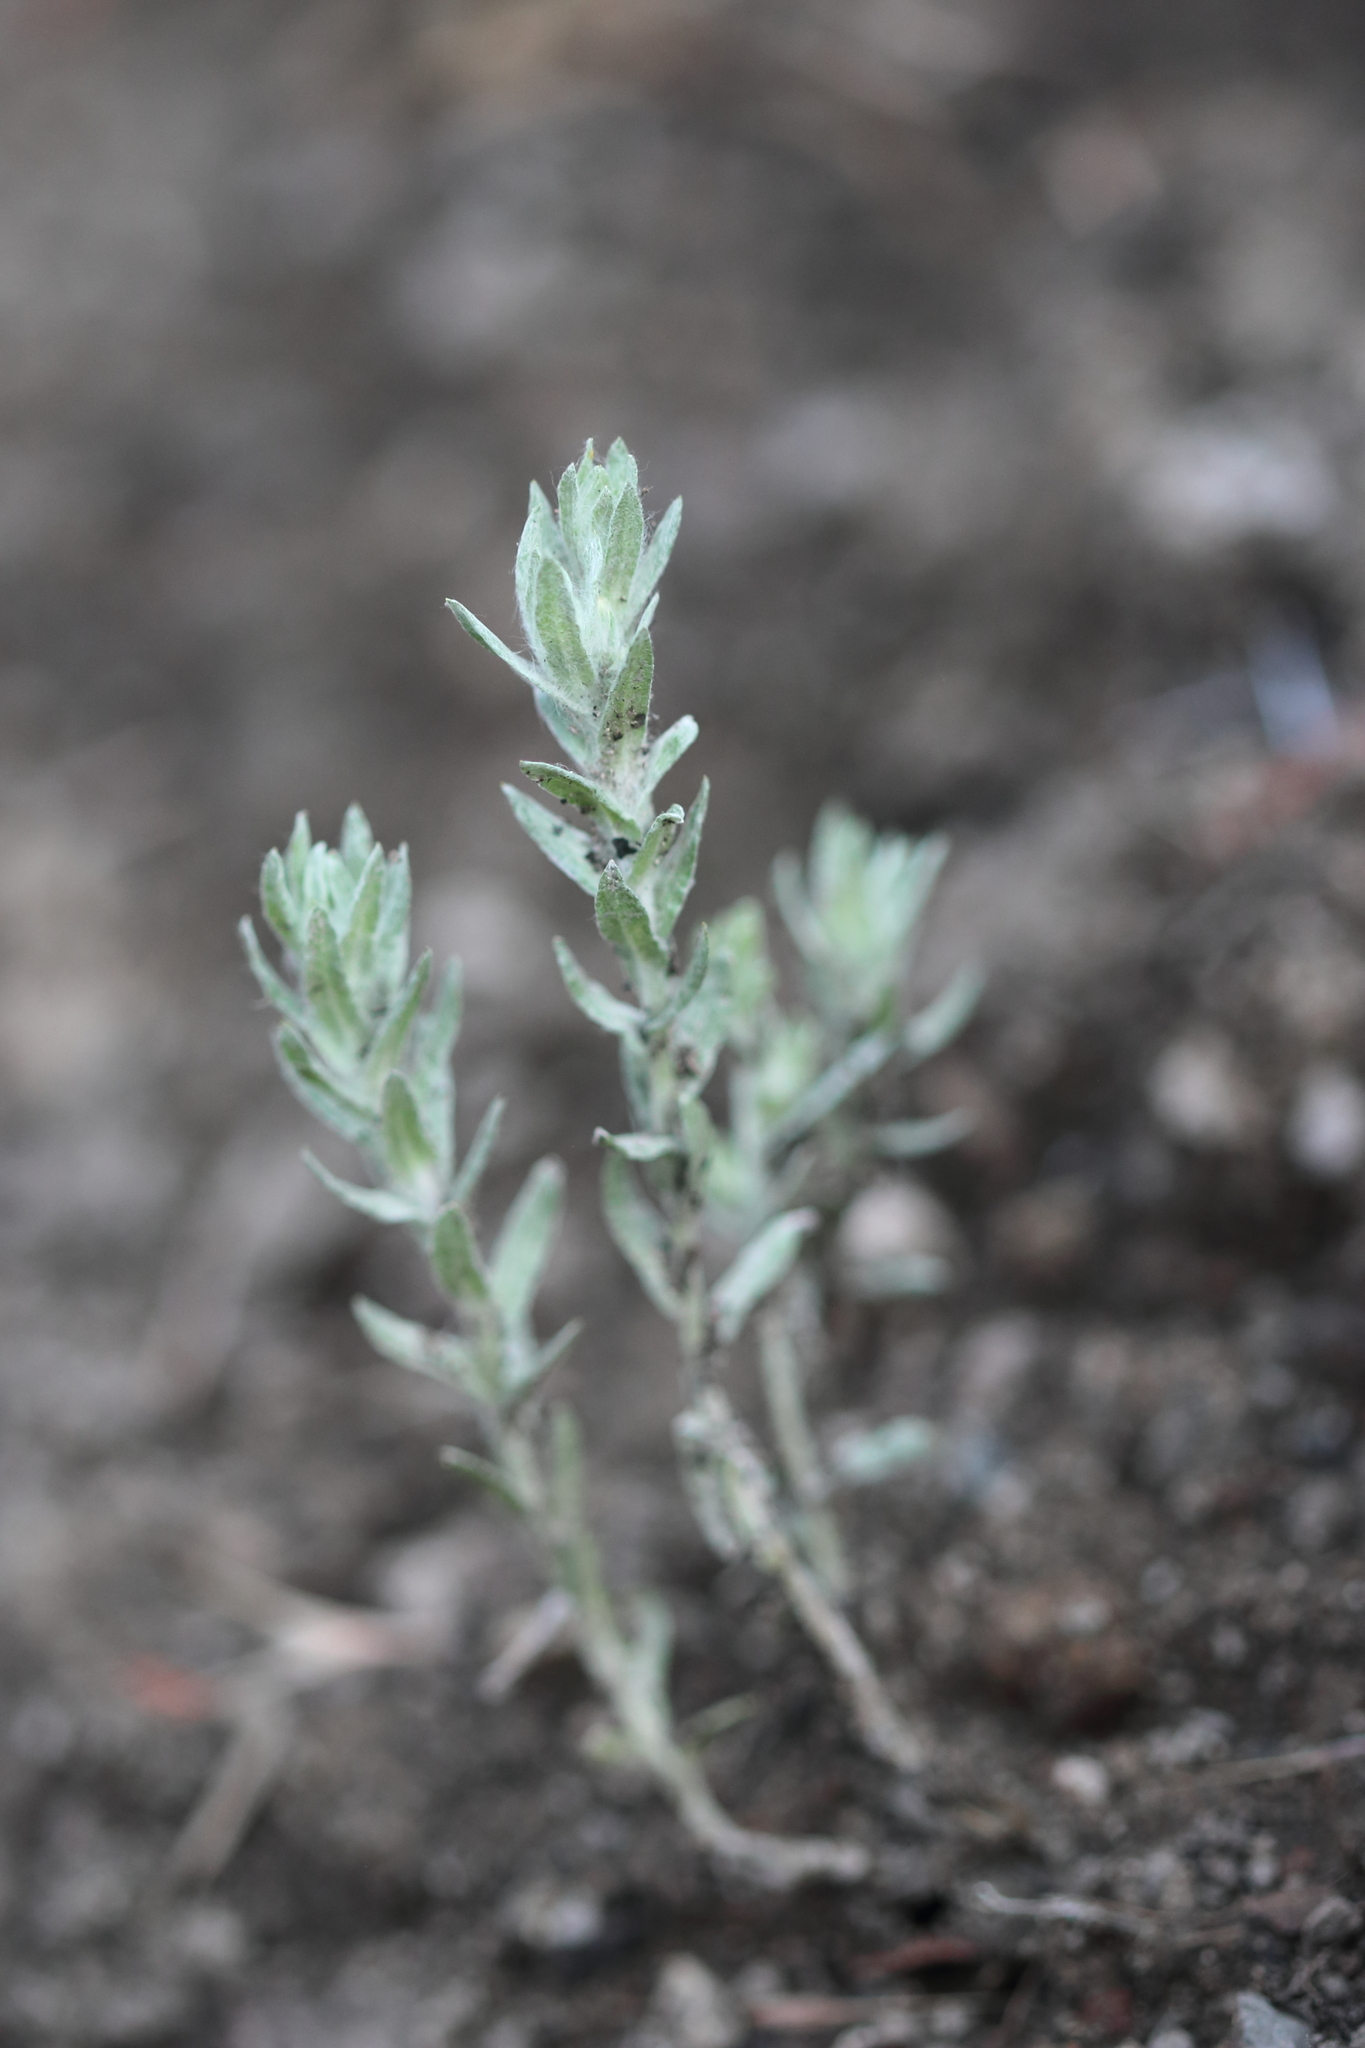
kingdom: Plantae
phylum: Tracheophyta
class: Magnoliopsida
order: Asterales
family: Asteraceae
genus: Filago
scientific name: Filago arvensis
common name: Field cudweed
